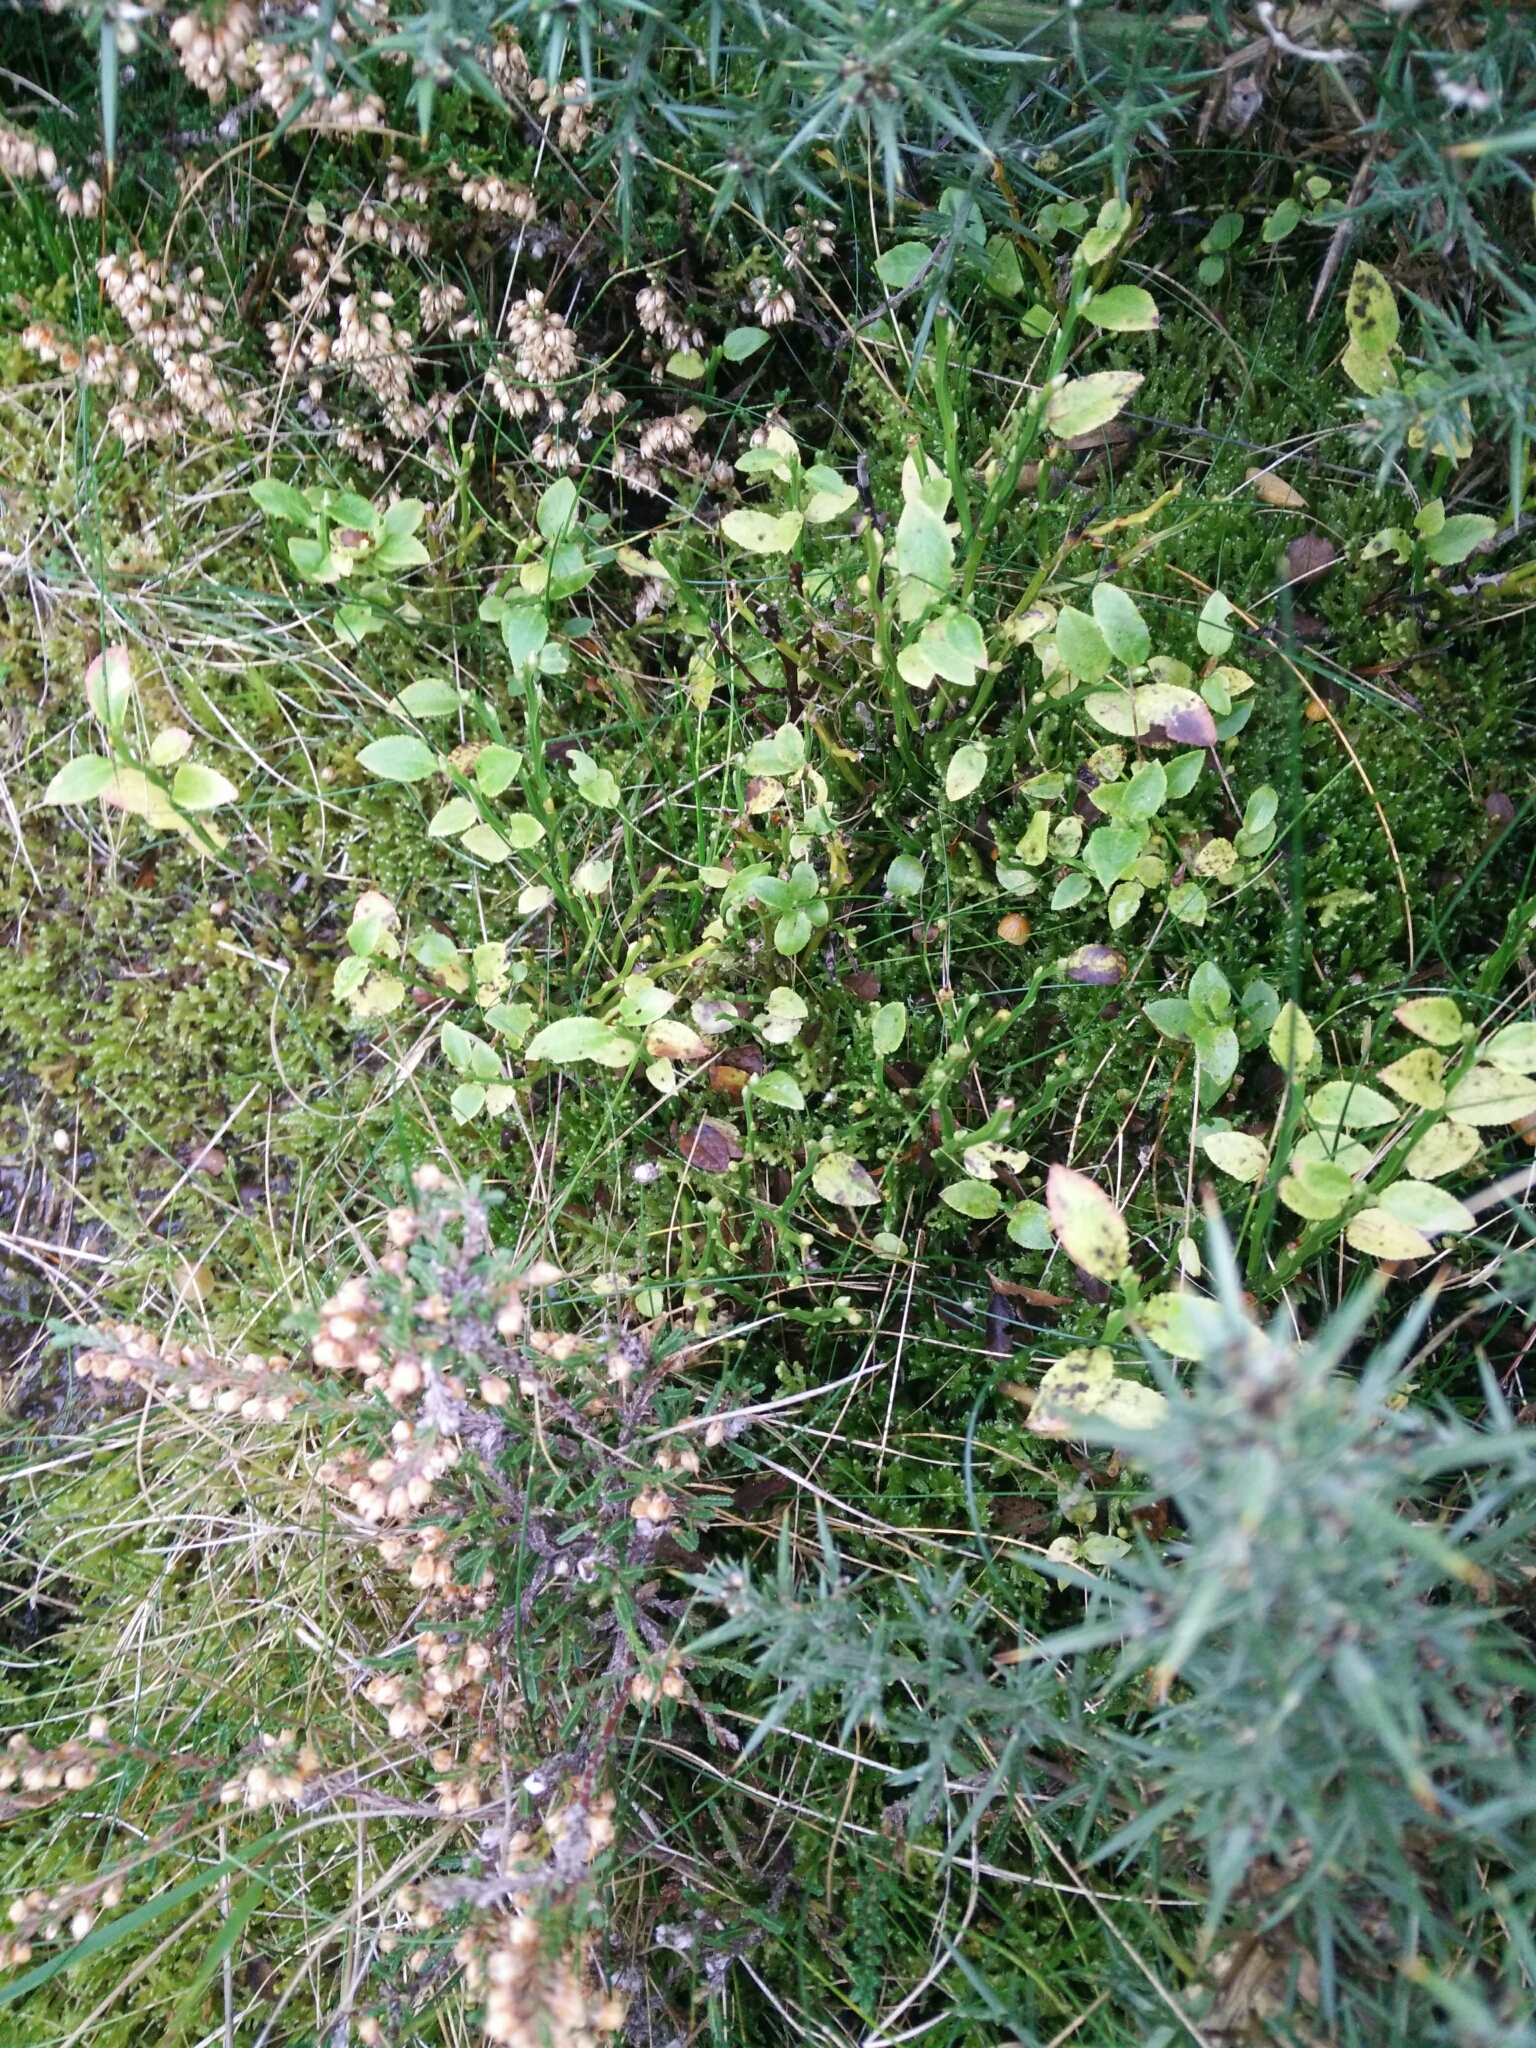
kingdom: Plantae
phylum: Tracheophyta
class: Magnoliopsida
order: Ericales
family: Ericaceae
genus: Vaccinium
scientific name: Vaccinium myrtillus
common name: Bilberry
